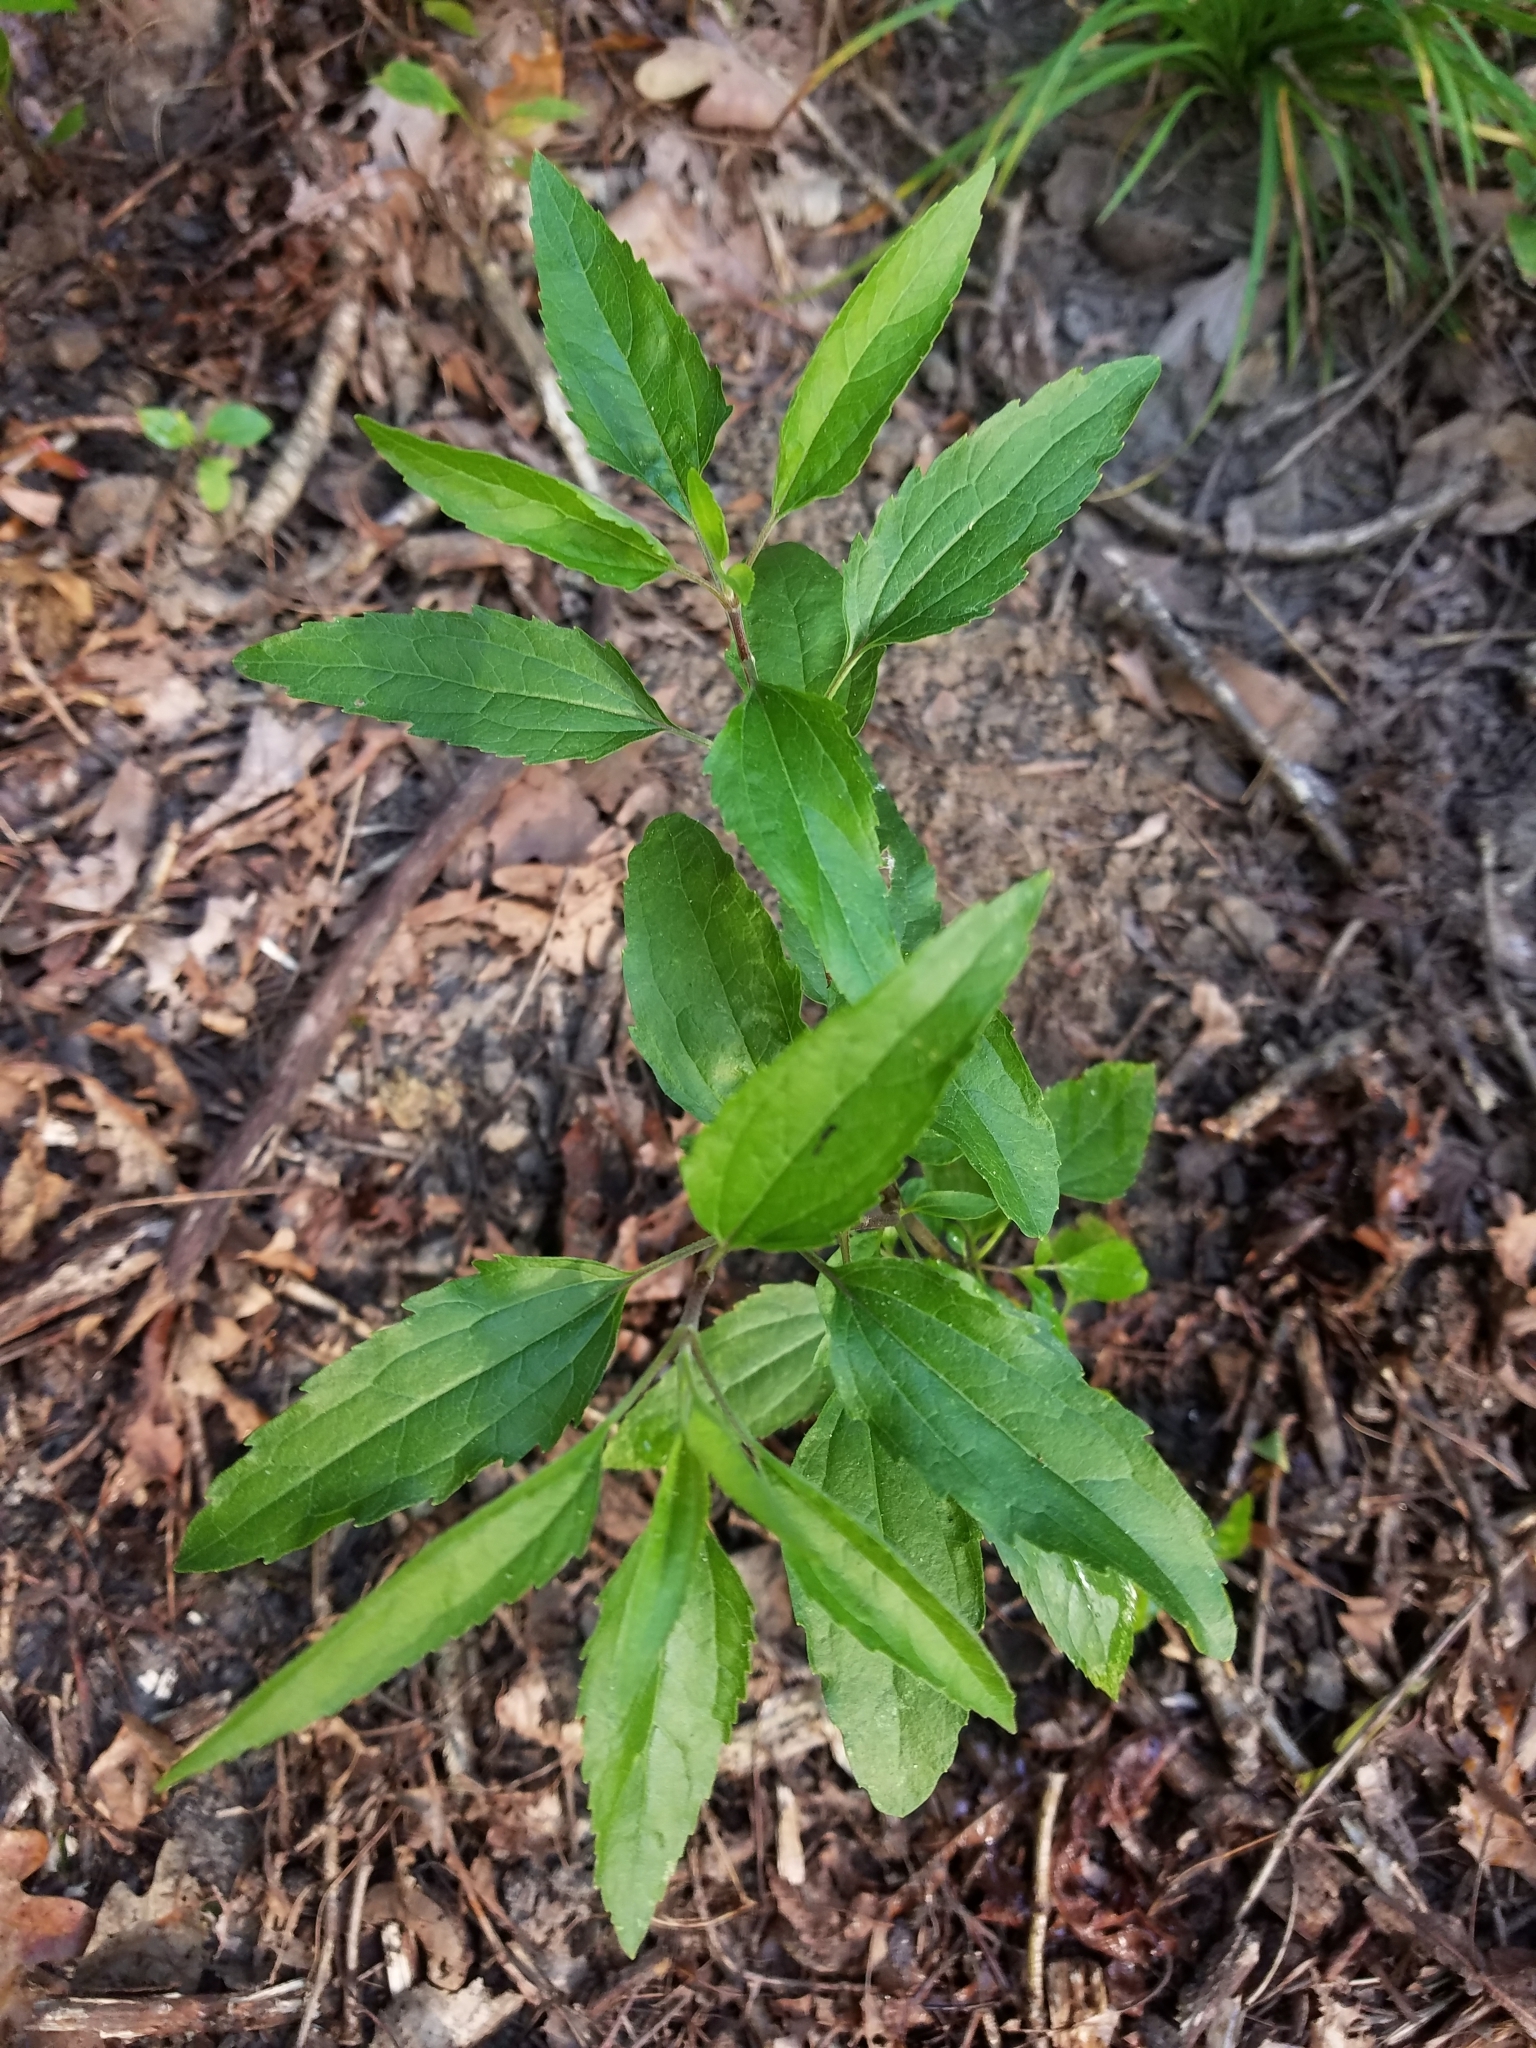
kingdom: Plantae
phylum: Tracheophyta
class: Magnoliopsida
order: Asterales
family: Asteraceae
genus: Eupatorium
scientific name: Eupatorium serotinum
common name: Late boneset
